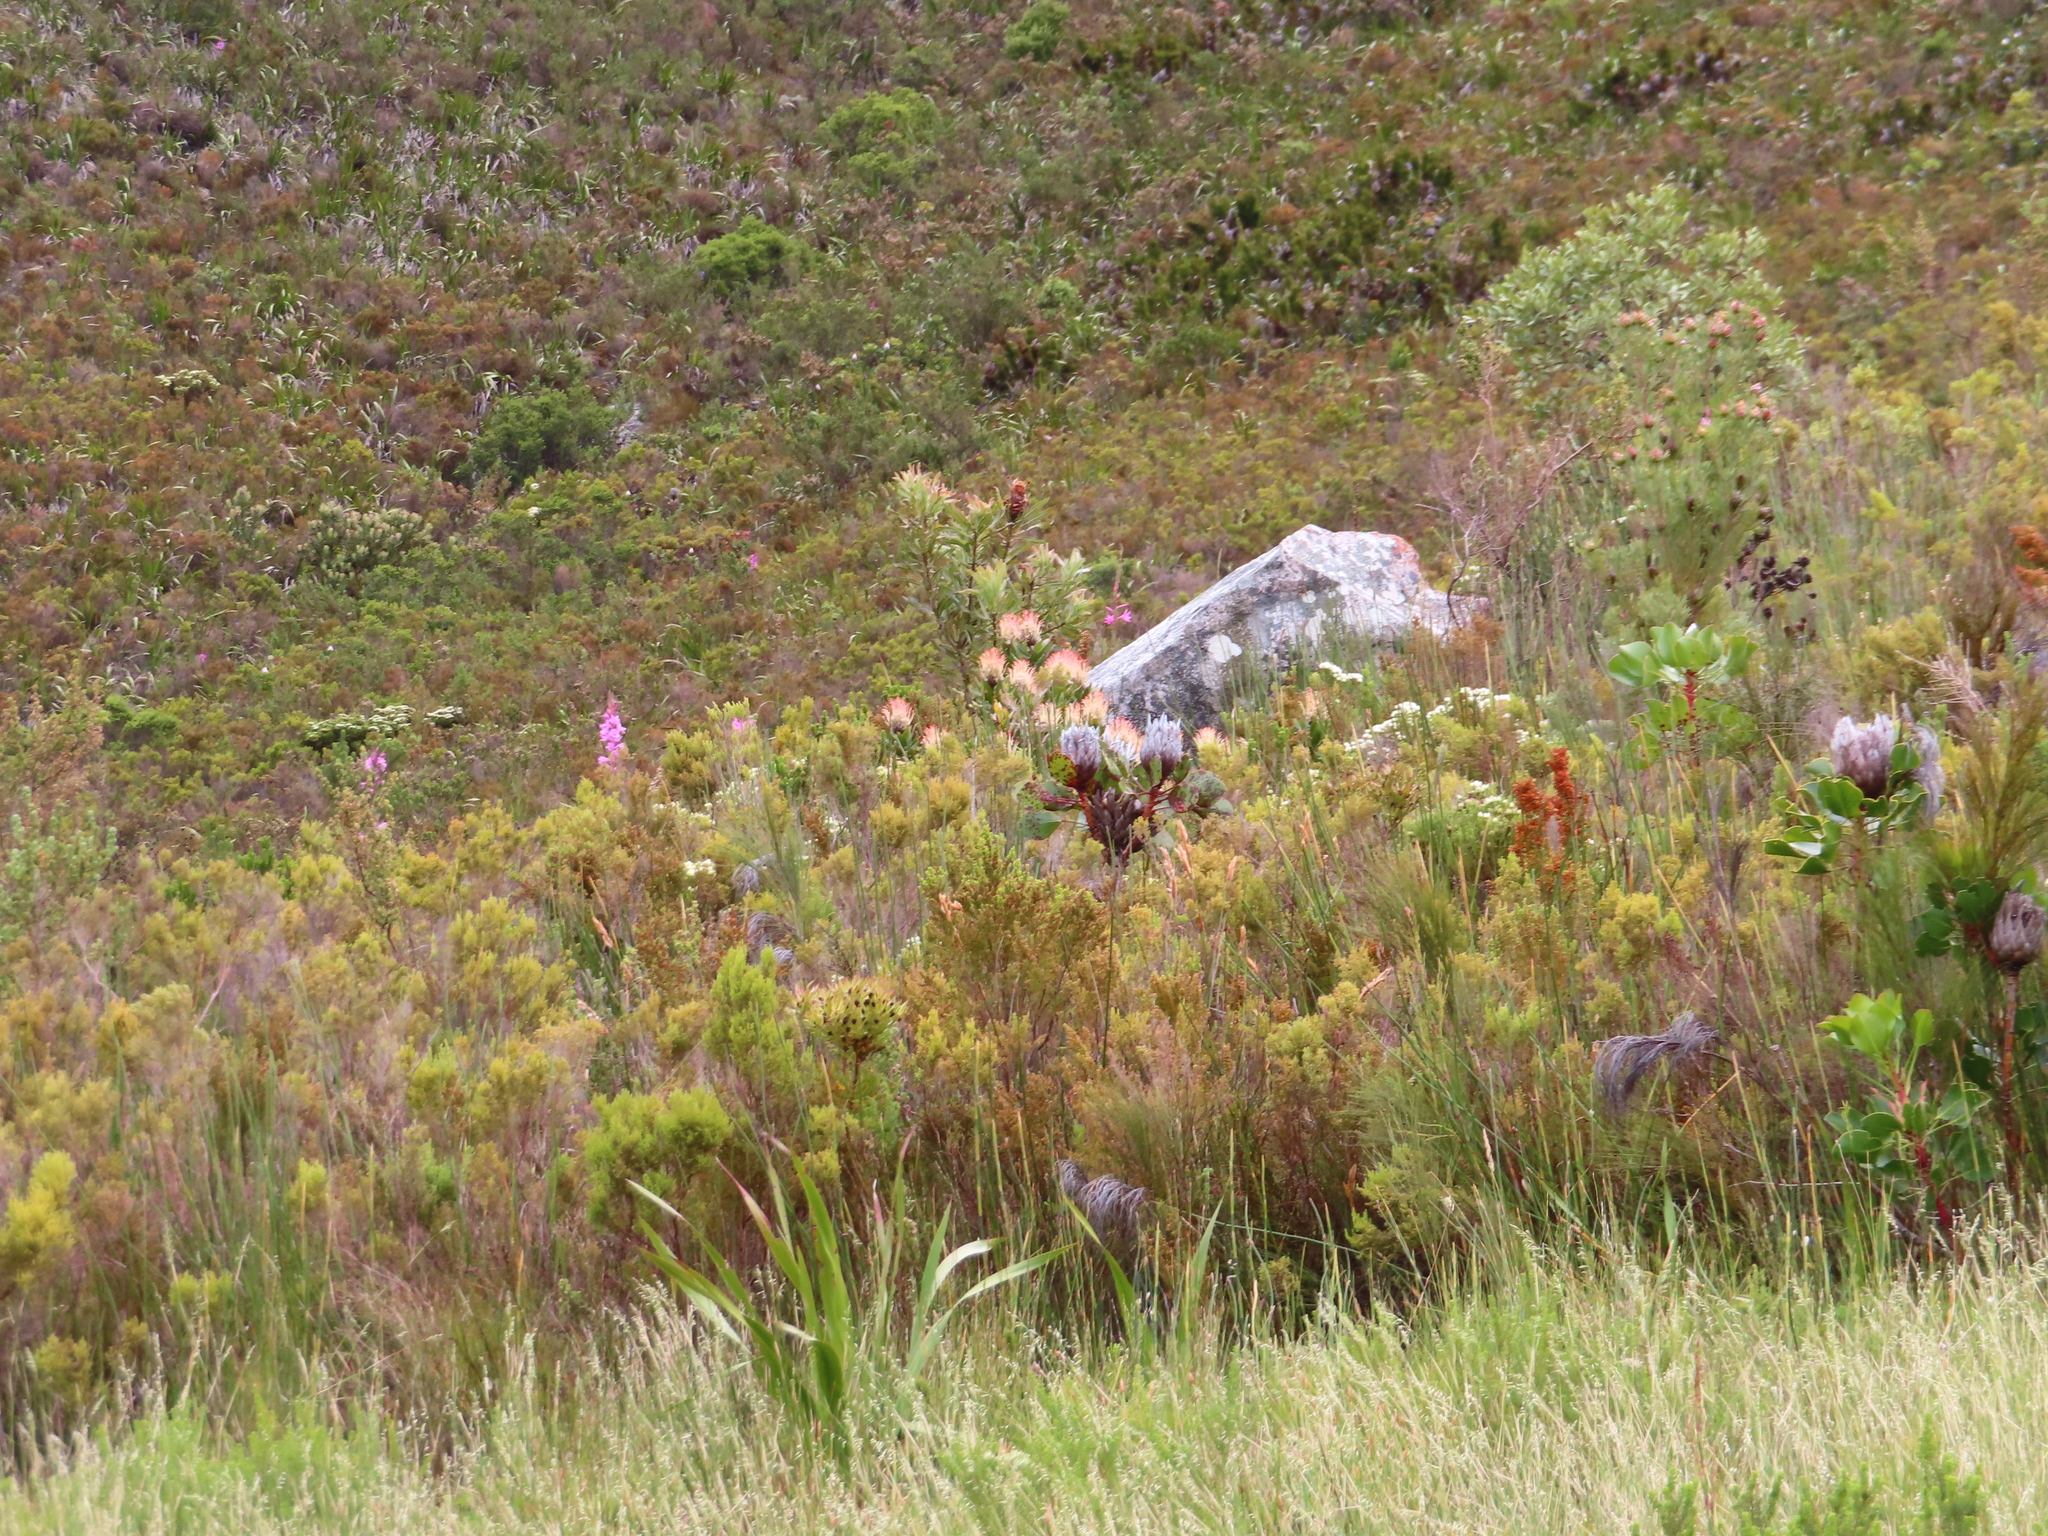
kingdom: Plantae
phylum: Tracheophyta
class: Magnoliopsida
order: Proteales
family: Proteaceae
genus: Leucospermum
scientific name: Leucospermum gueinzii
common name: Kloof fountain pincushion
